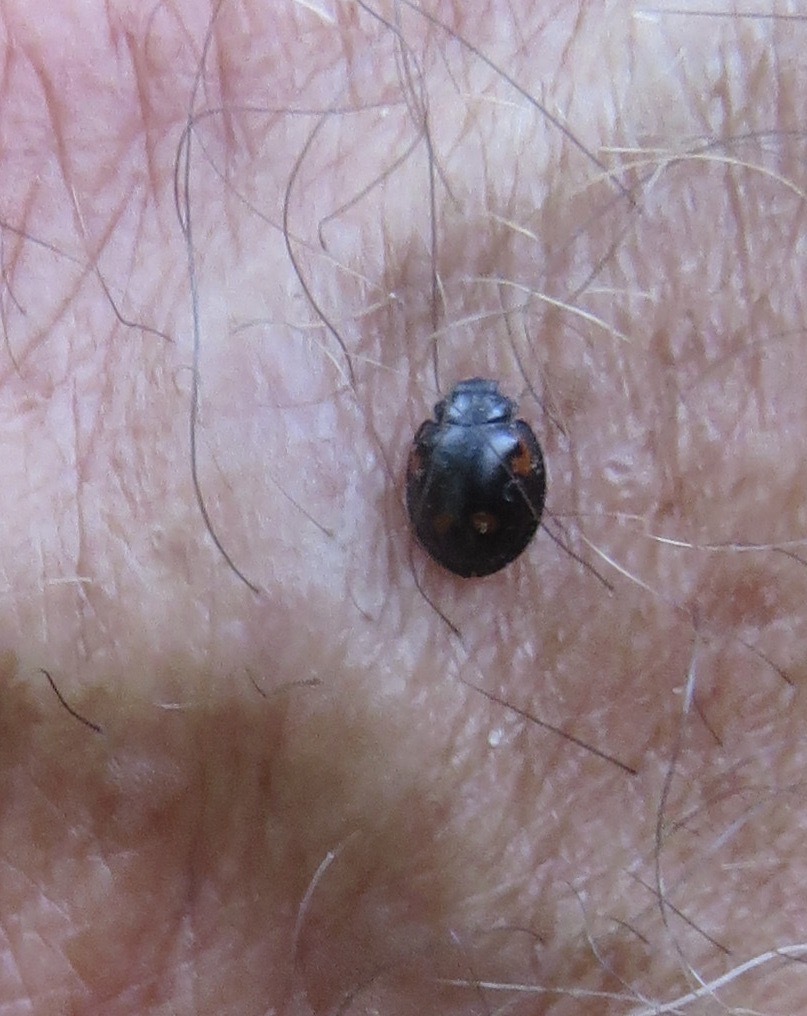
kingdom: Animalia
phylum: Arthropoda
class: Insecta
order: Coleoptera
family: Coccinellidae
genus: Brumus
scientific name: Brumus quadripustulatus
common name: Ladybird beetle
